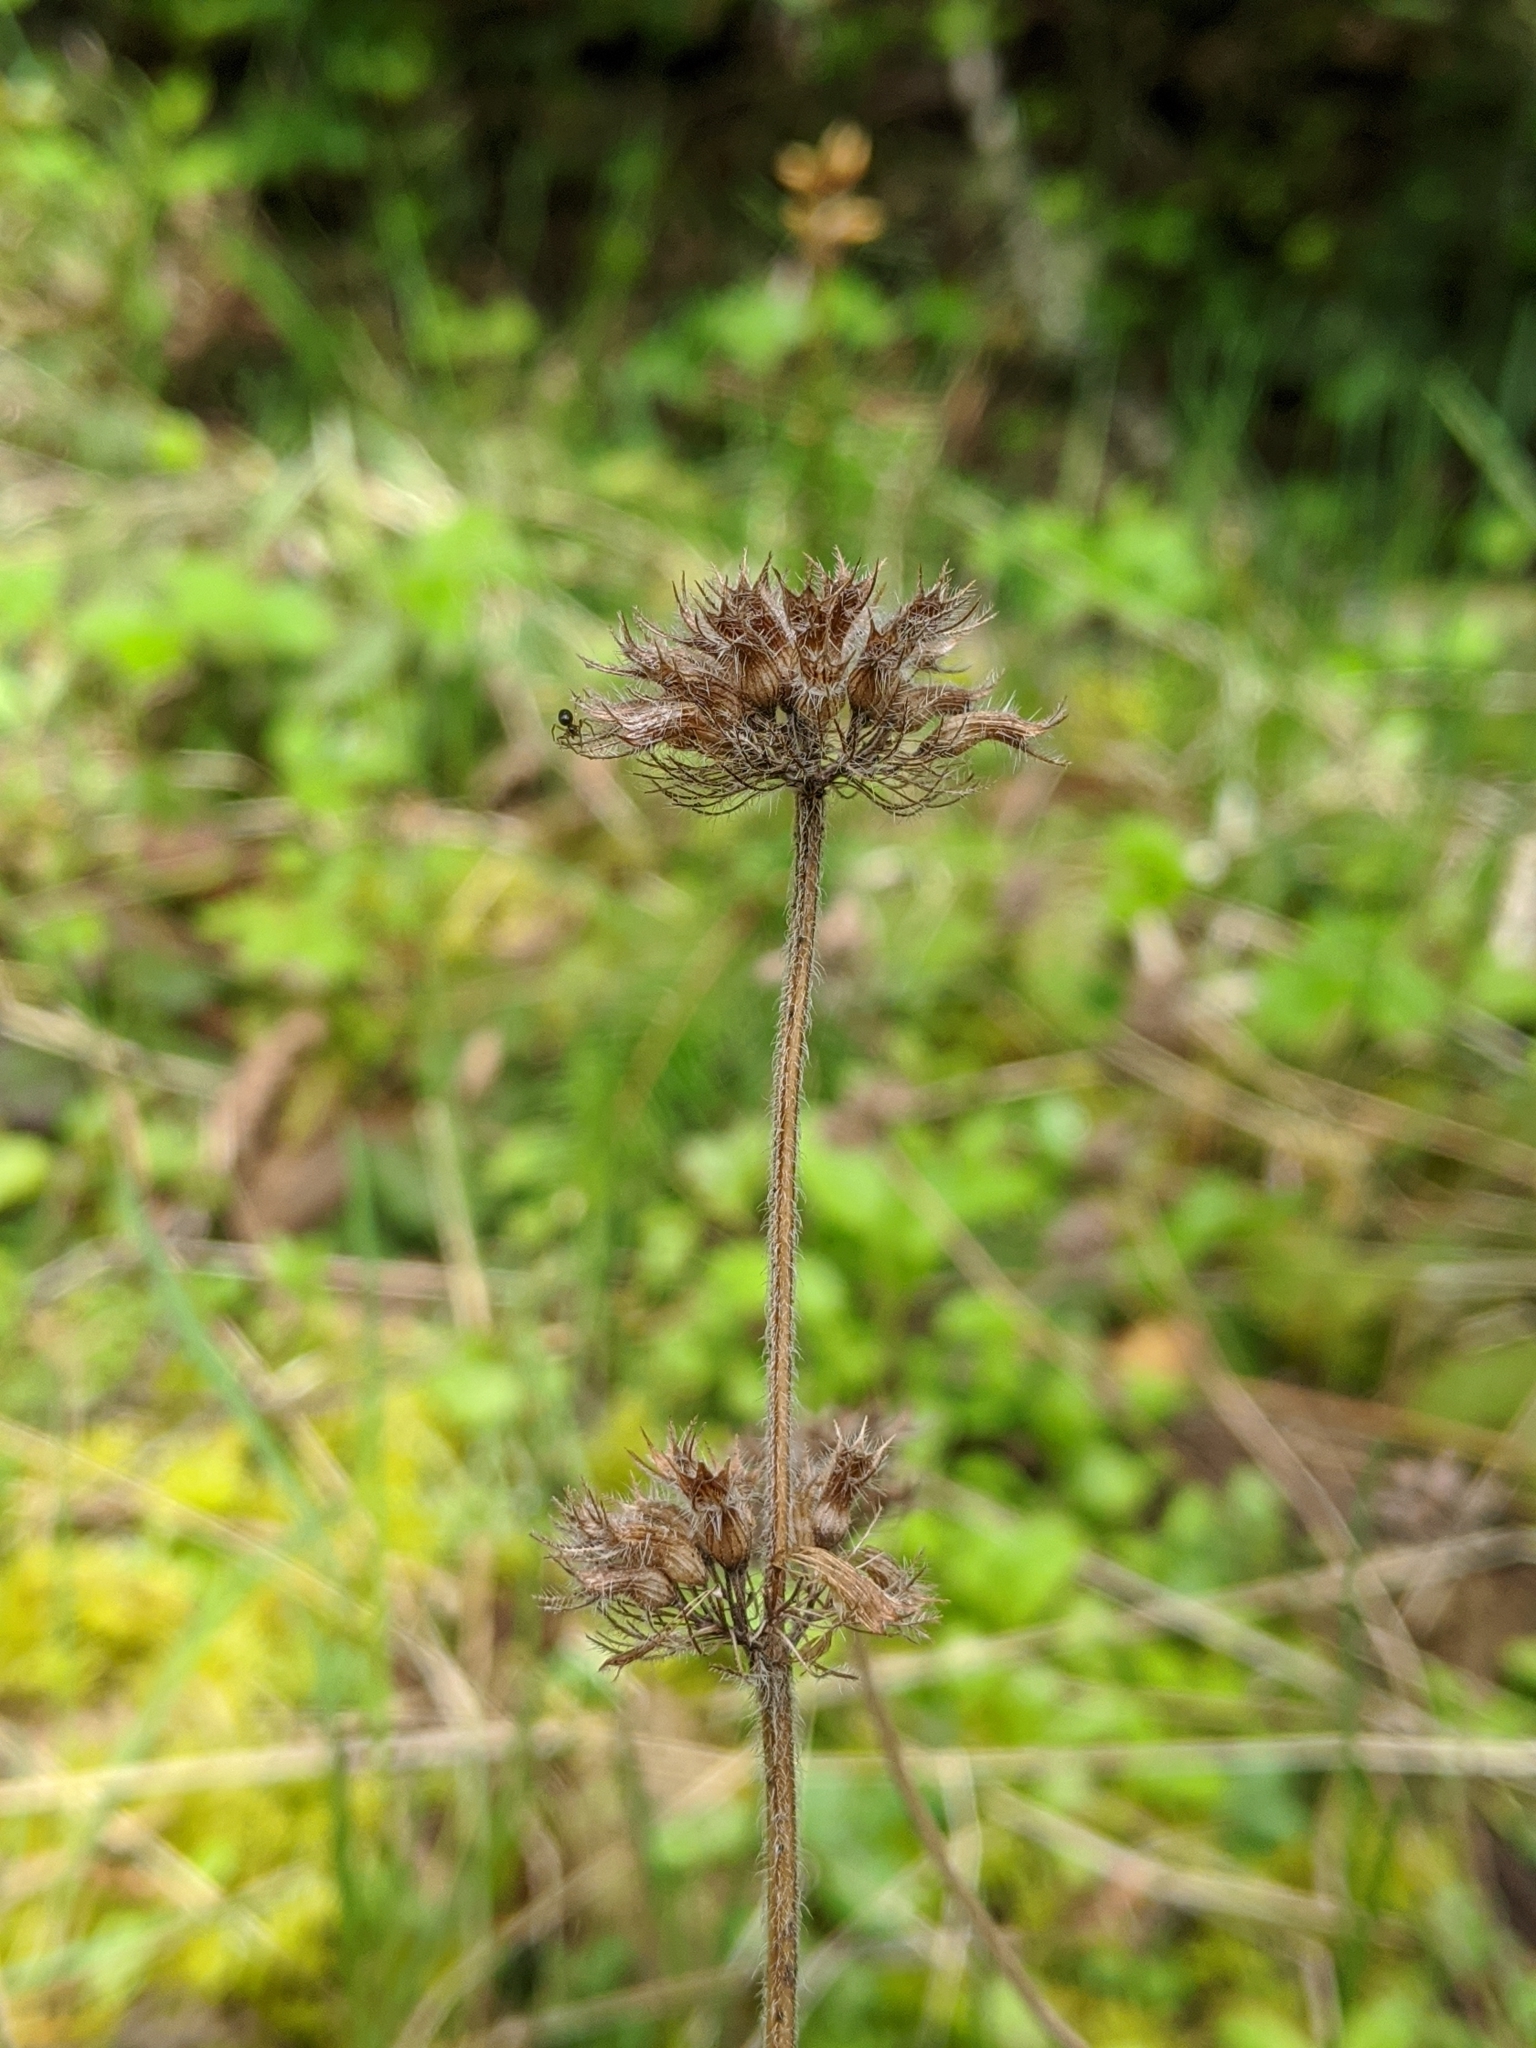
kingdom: Plantae
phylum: Tracheophyta
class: Magnoliopsida
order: Lamiales
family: Lamiaceae
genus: Clinopodium
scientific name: Clinopodium vulgare
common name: Wild basil
